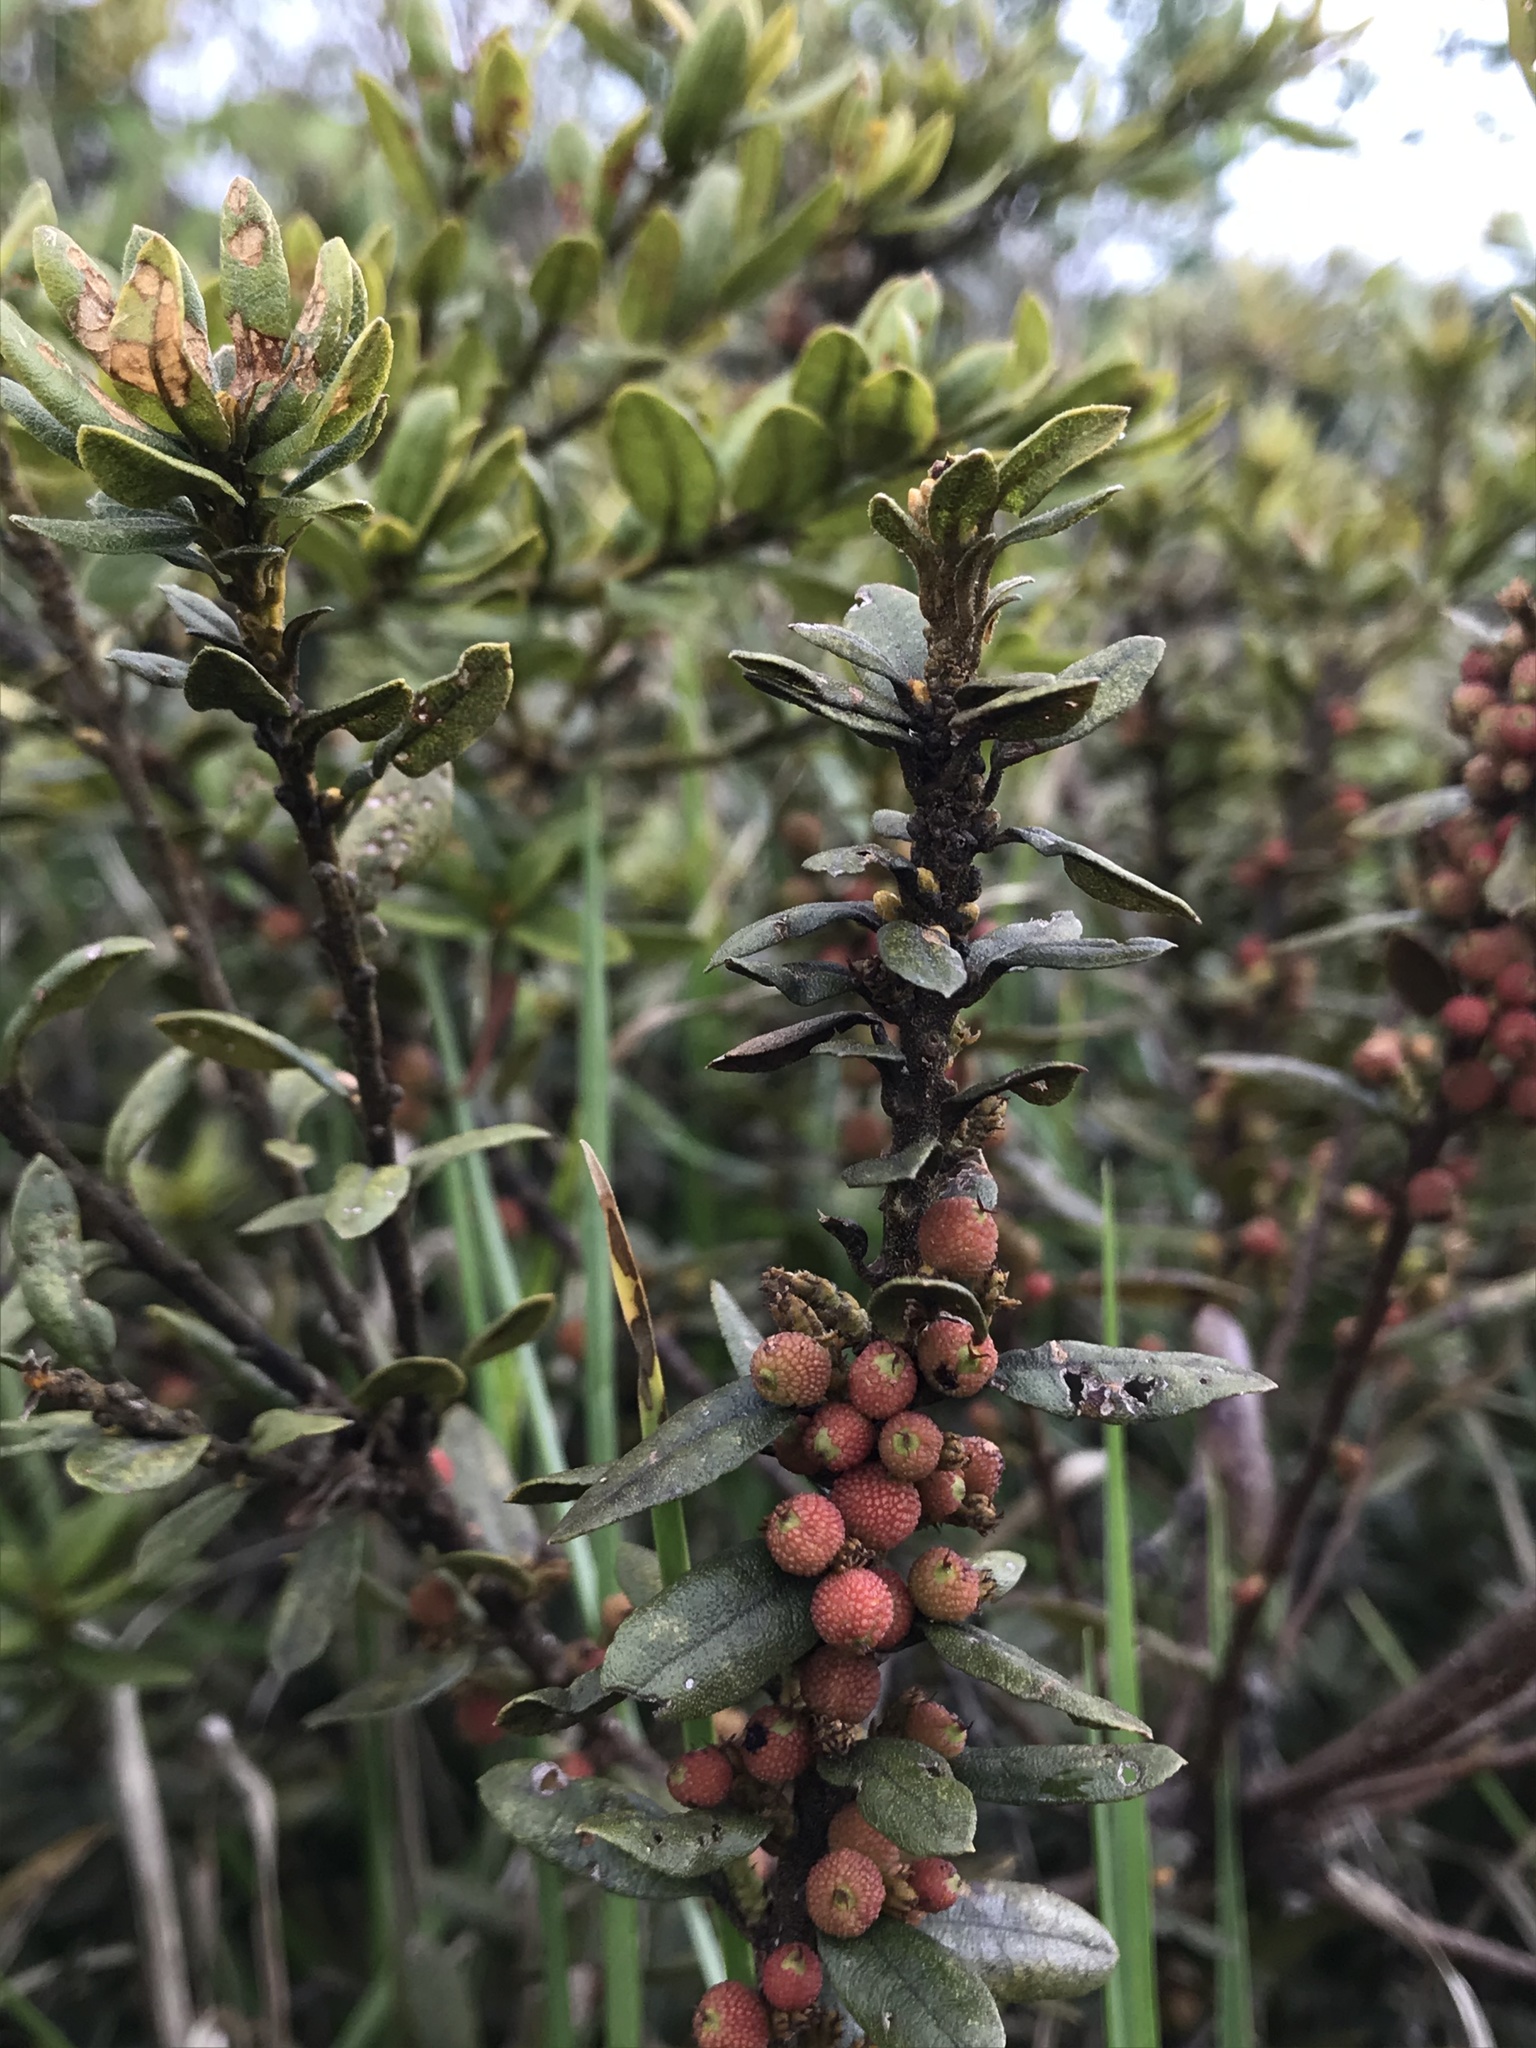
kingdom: Plantae
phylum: Tracheophyta
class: Magnoliopsida
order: Fagales
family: Myricaceae
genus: Morella
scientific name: Morella parvifolia
